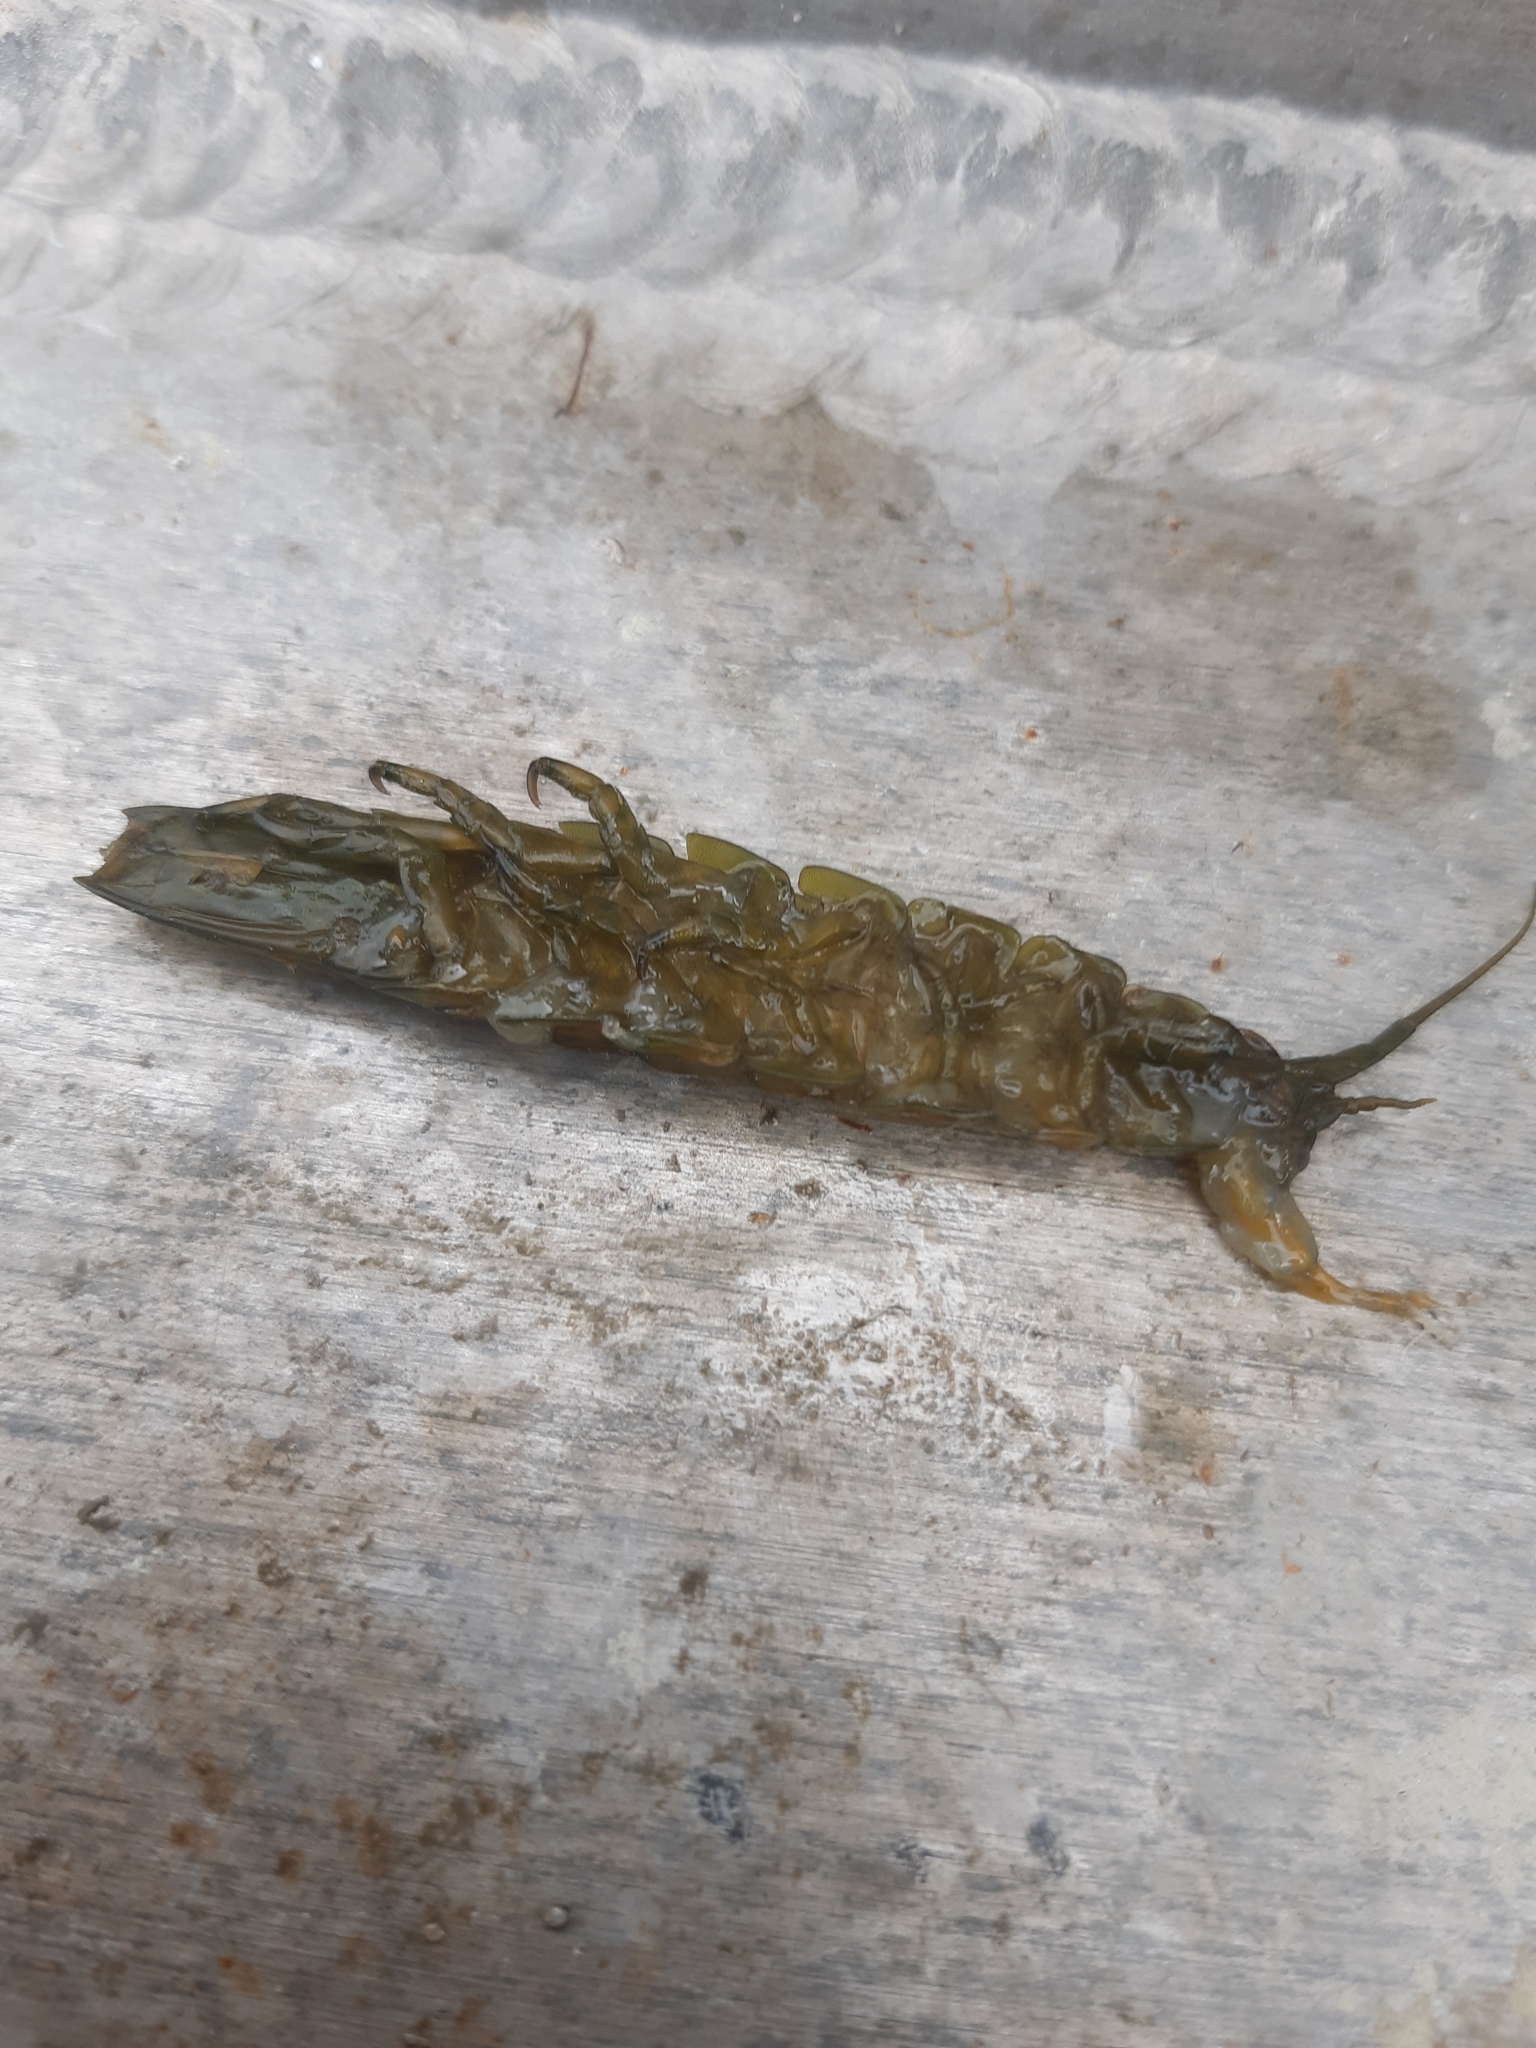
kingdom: Animalia
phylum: Arthropoda
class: Malacostraca
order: Isopoda
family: Idoteidae
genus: Paridotea
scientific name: Paridotea ungulata
